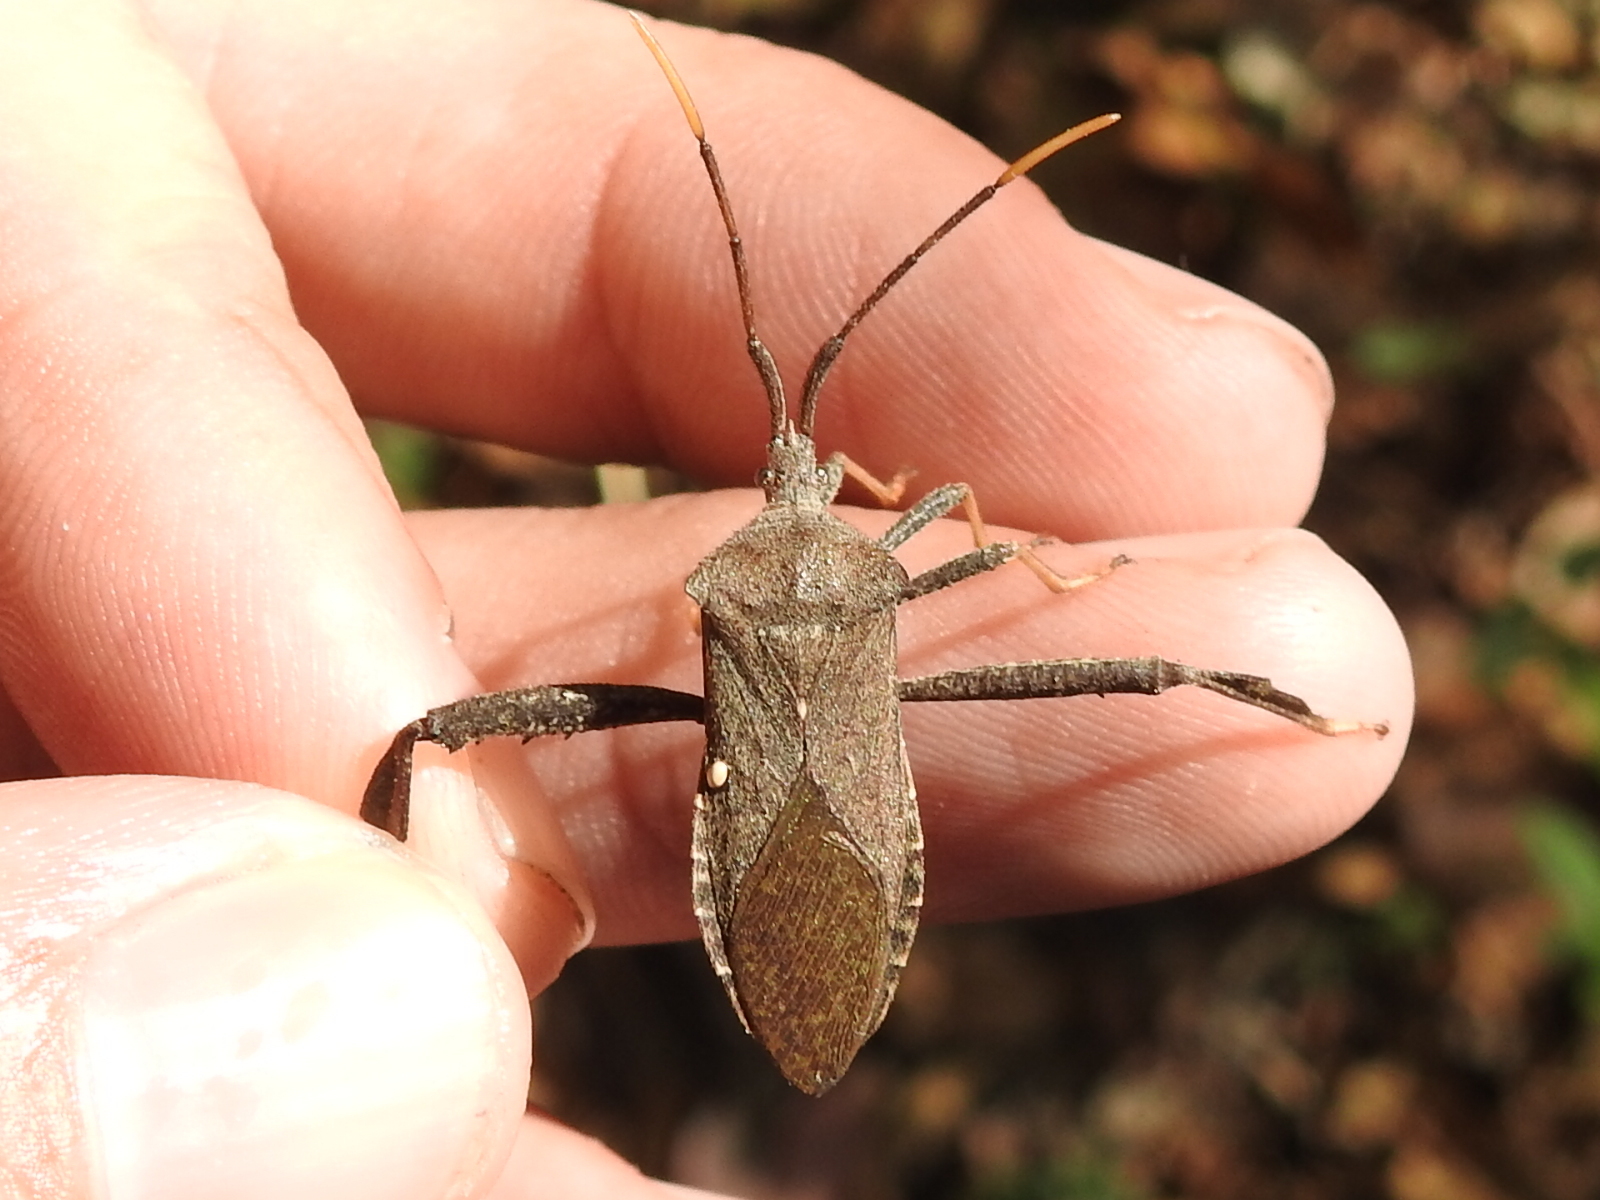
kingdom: Animalia
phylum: Arthropoda
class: Insecta
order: Hemiptera
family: Coreidae
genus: Acanthocephala
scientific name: Acanthocephala terminalis
